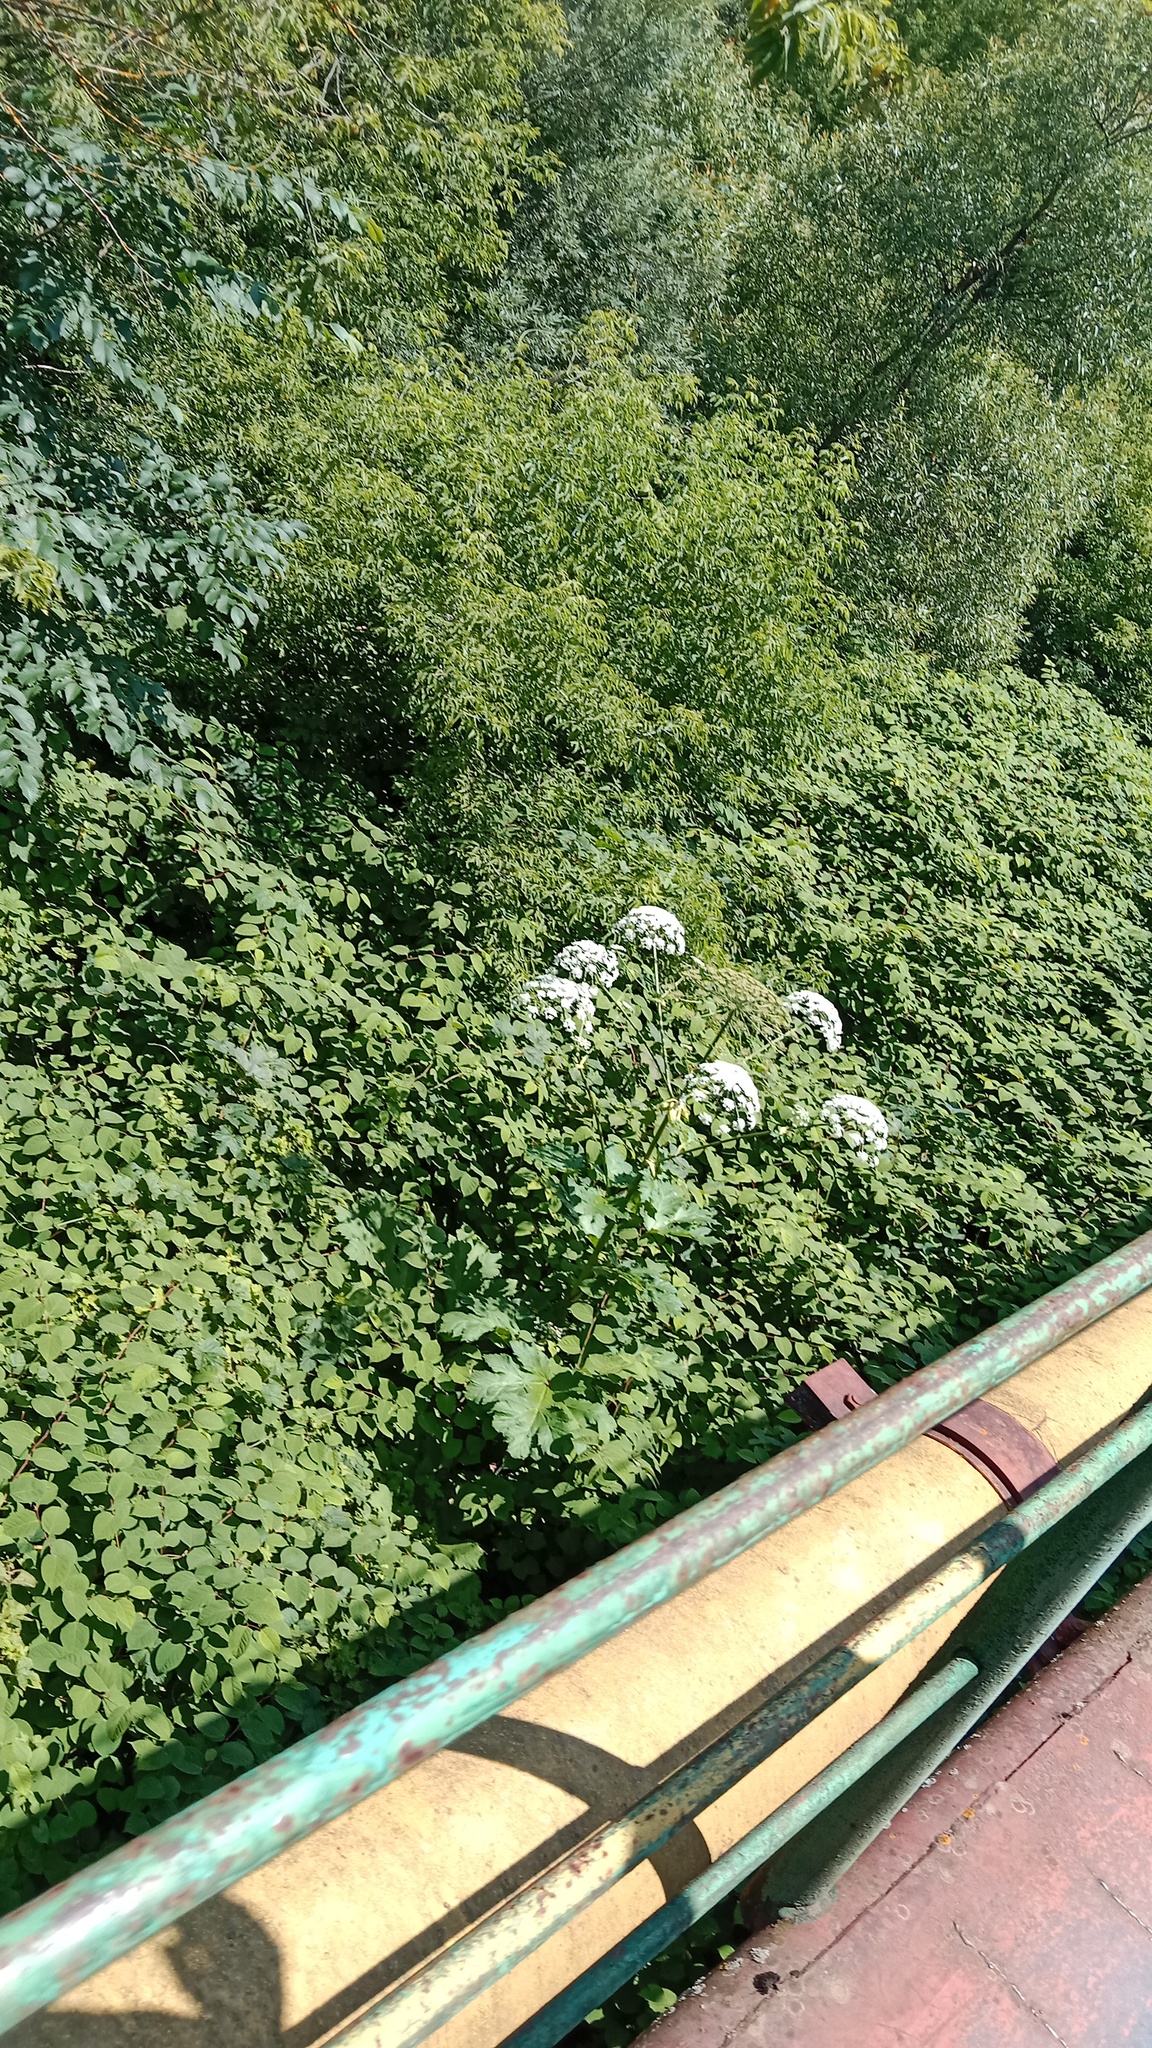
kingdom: Plantae
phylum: Tracheophyta
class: Magnoliopsida
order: Apiales
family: Apiaceae
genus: Heracleum
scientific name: Heracleum sosnowskyi
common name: Sosnowsky's hogweed
